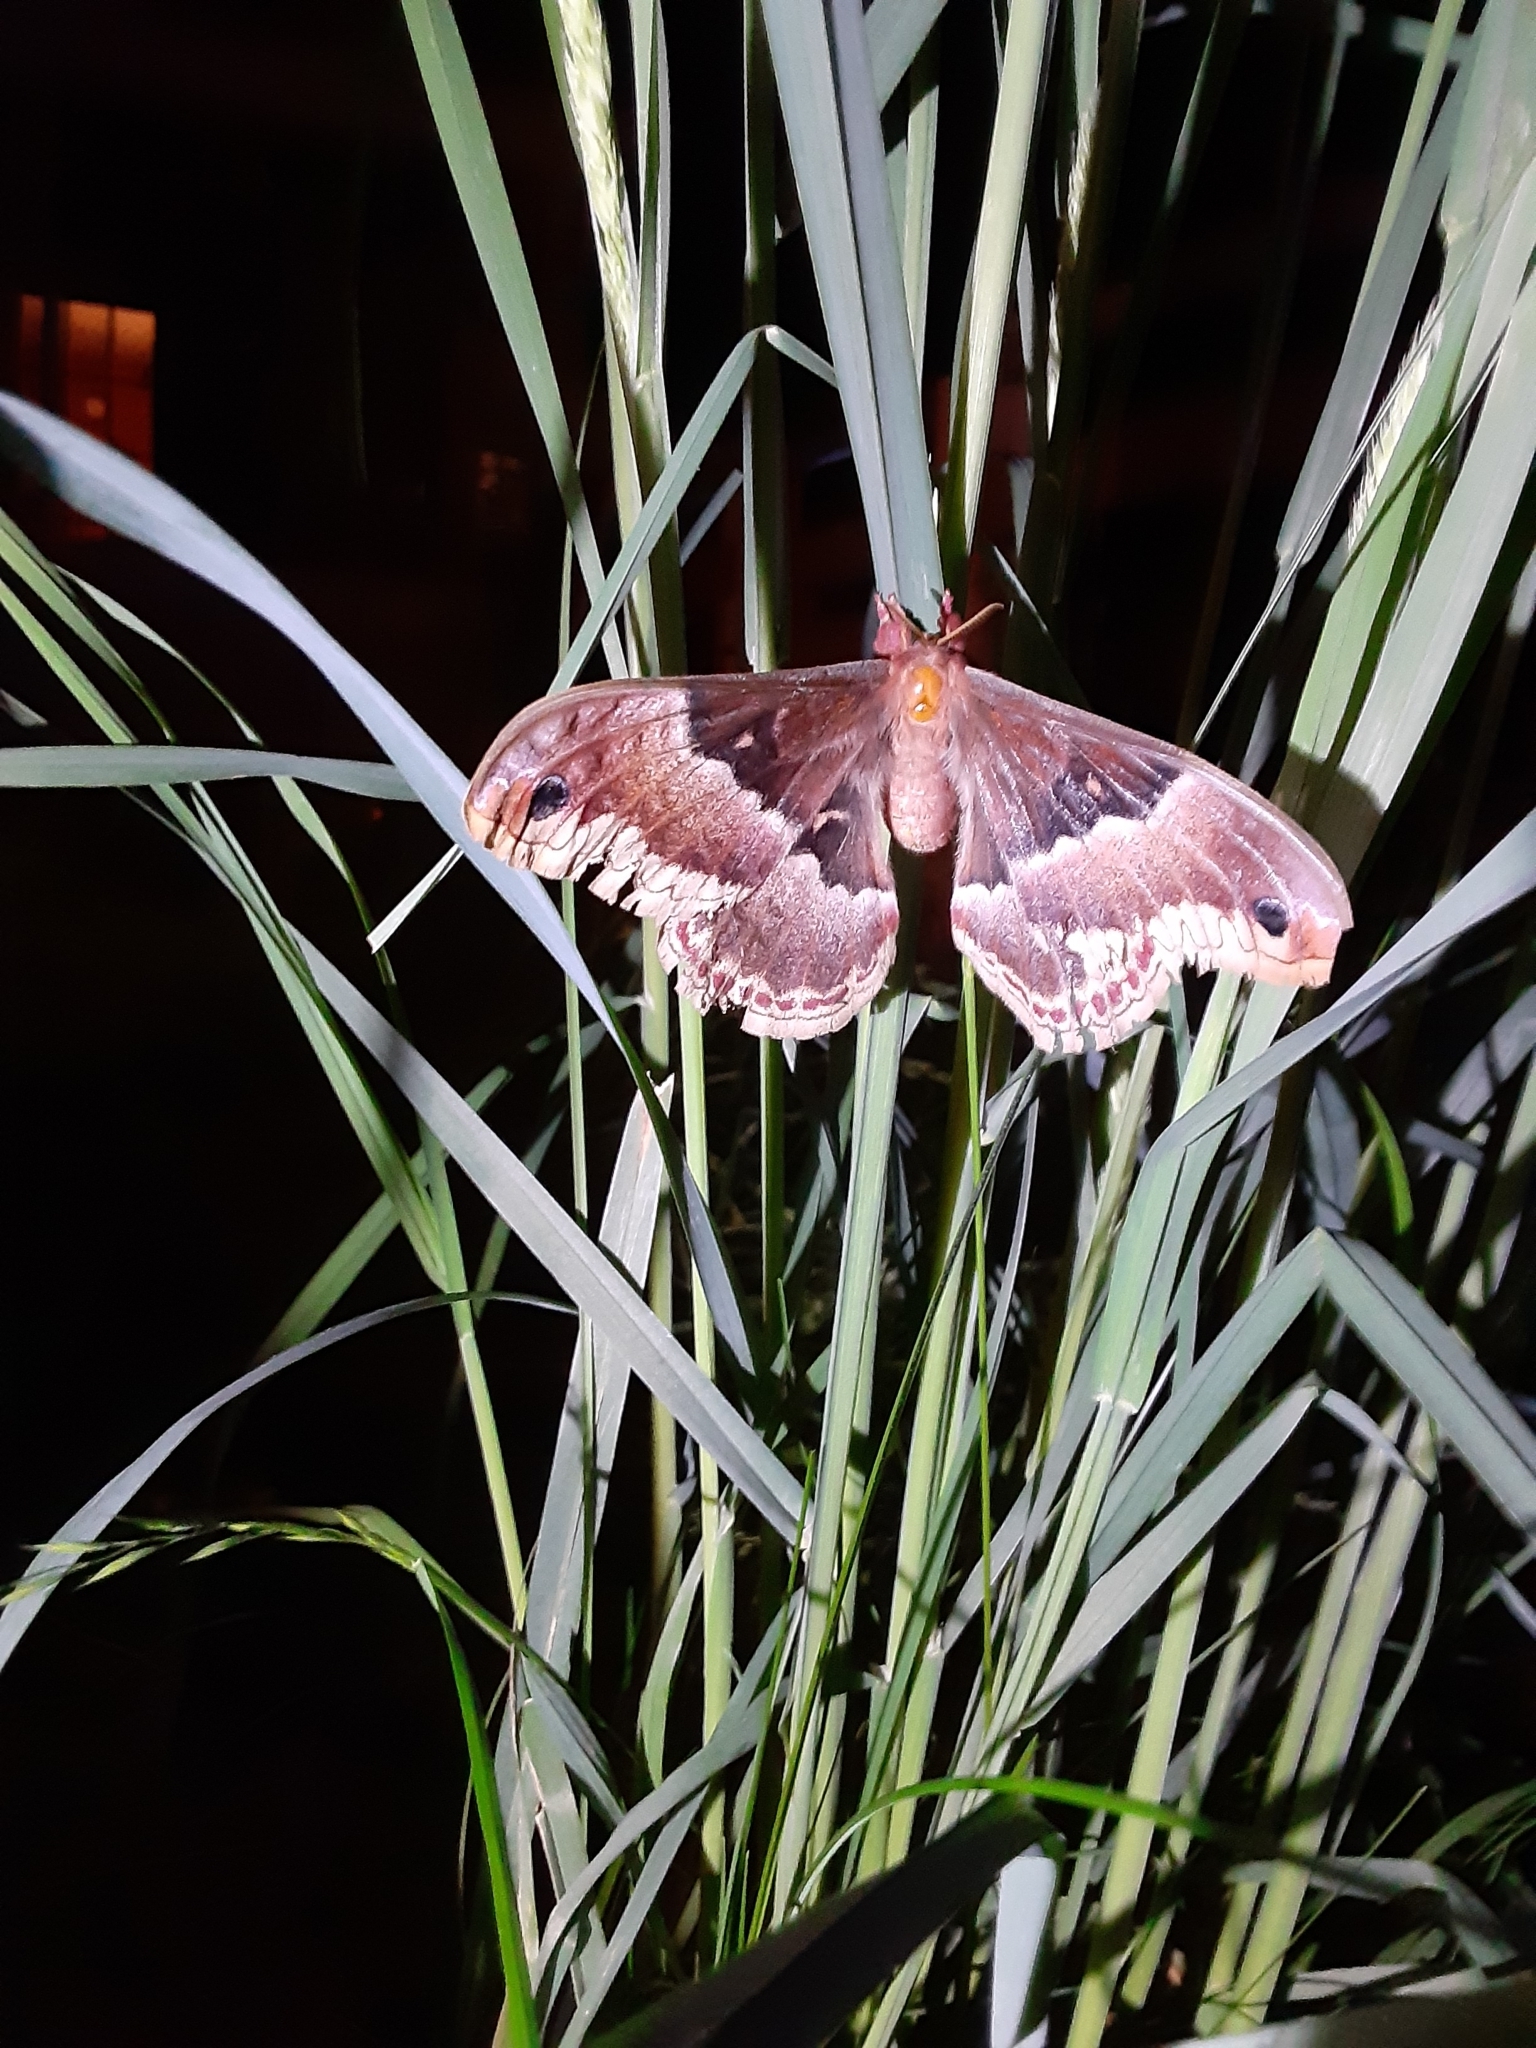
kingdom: Animalia
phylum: Arthropoda
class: Insecta
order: Lepidoptera
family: Saturniidae
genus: Callosamia
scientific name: Callosamia promethea
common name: Promethea silkmoth
